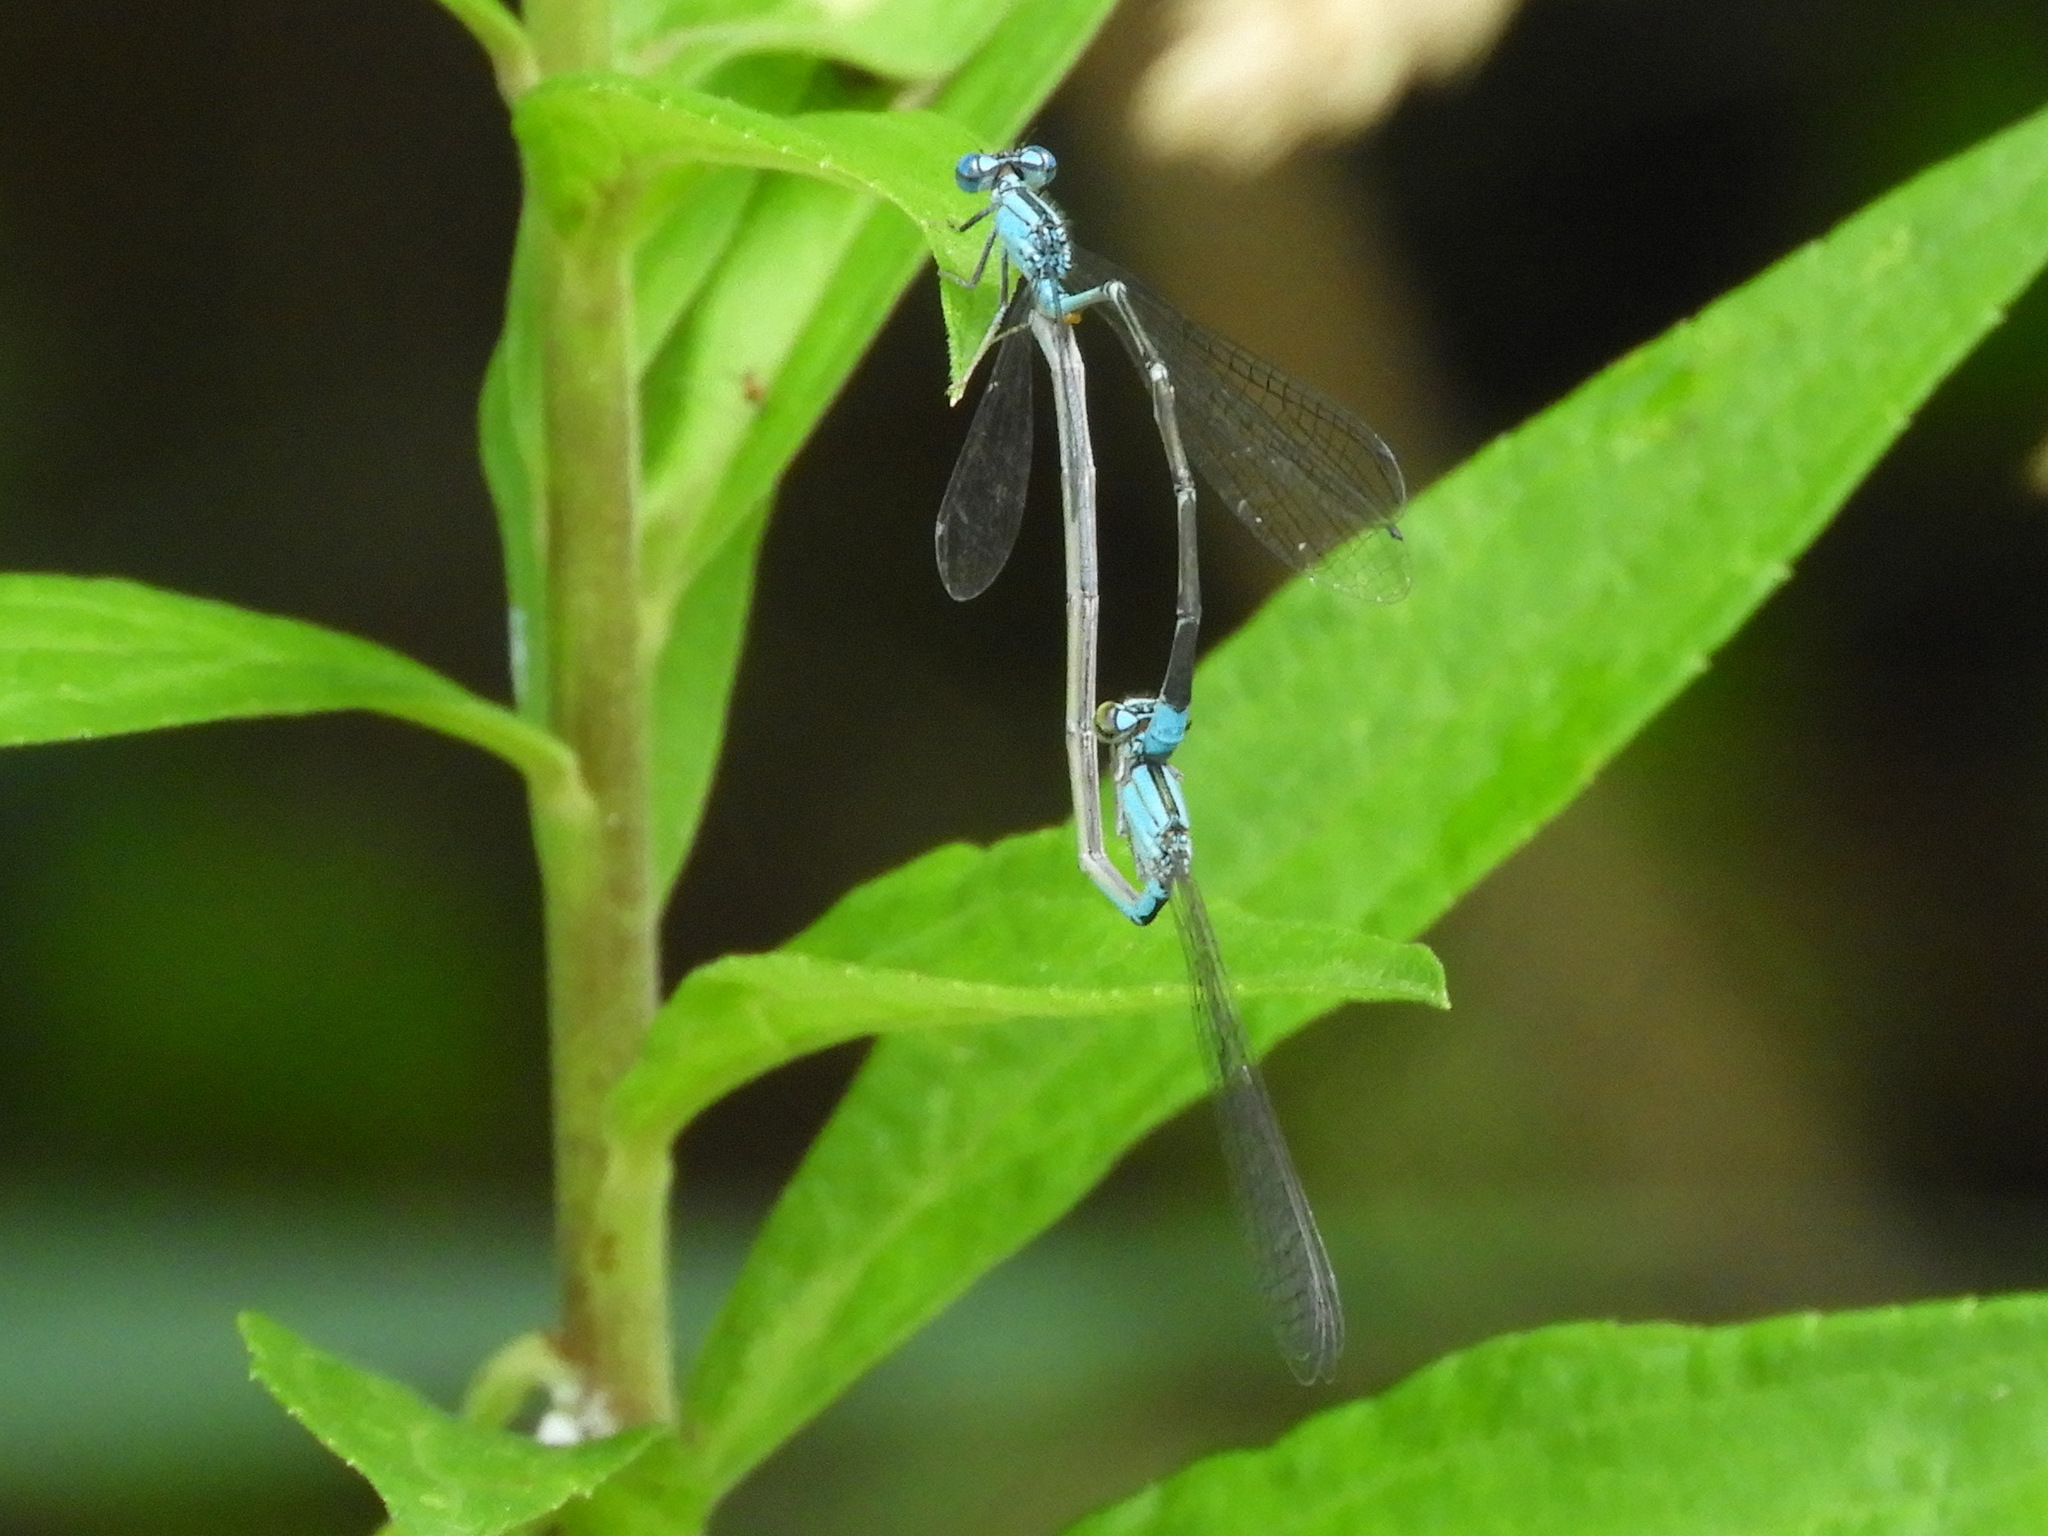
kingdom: Animalia
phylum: Arthropoda
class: Insecta
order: Odonata
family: Coenagrionidae
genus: Enallagma
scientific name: Enallagma traviatum
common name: Slender bluet
